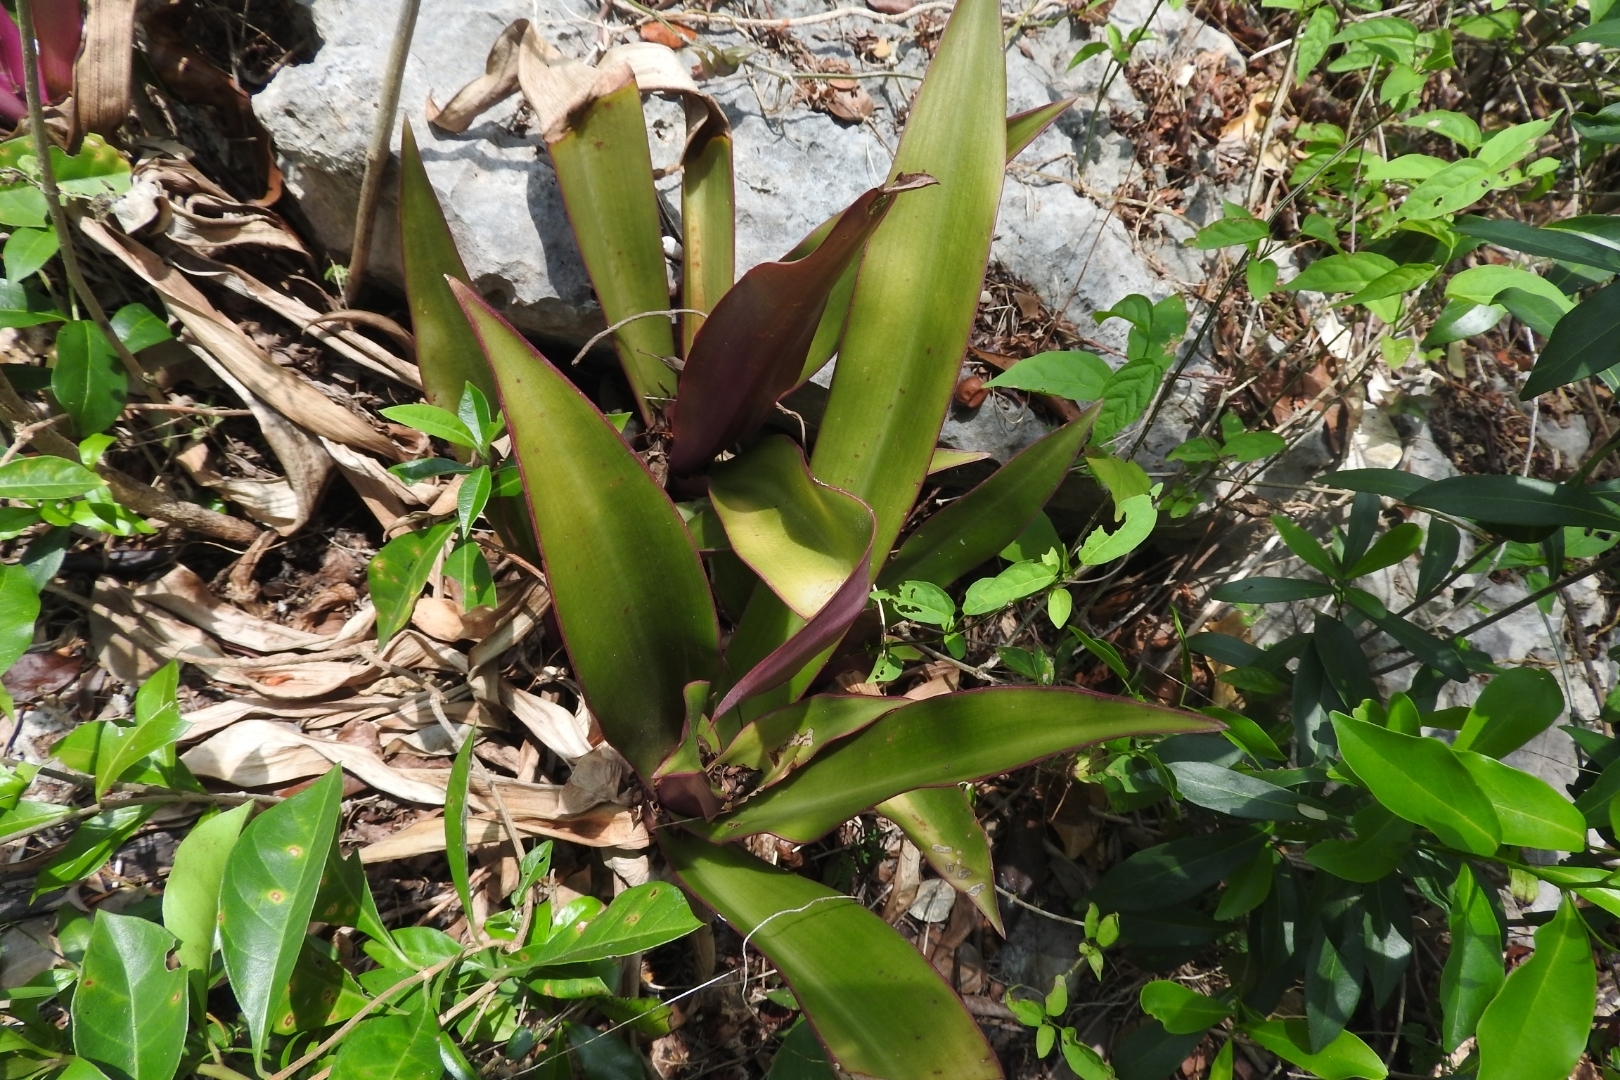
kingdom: Plantae
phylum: Tracheophyta
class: Liliopsida
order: Commelinales
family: Commelinaceae
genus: Tradescantia
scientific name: Tradescantia spathacea
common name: Boatlily
